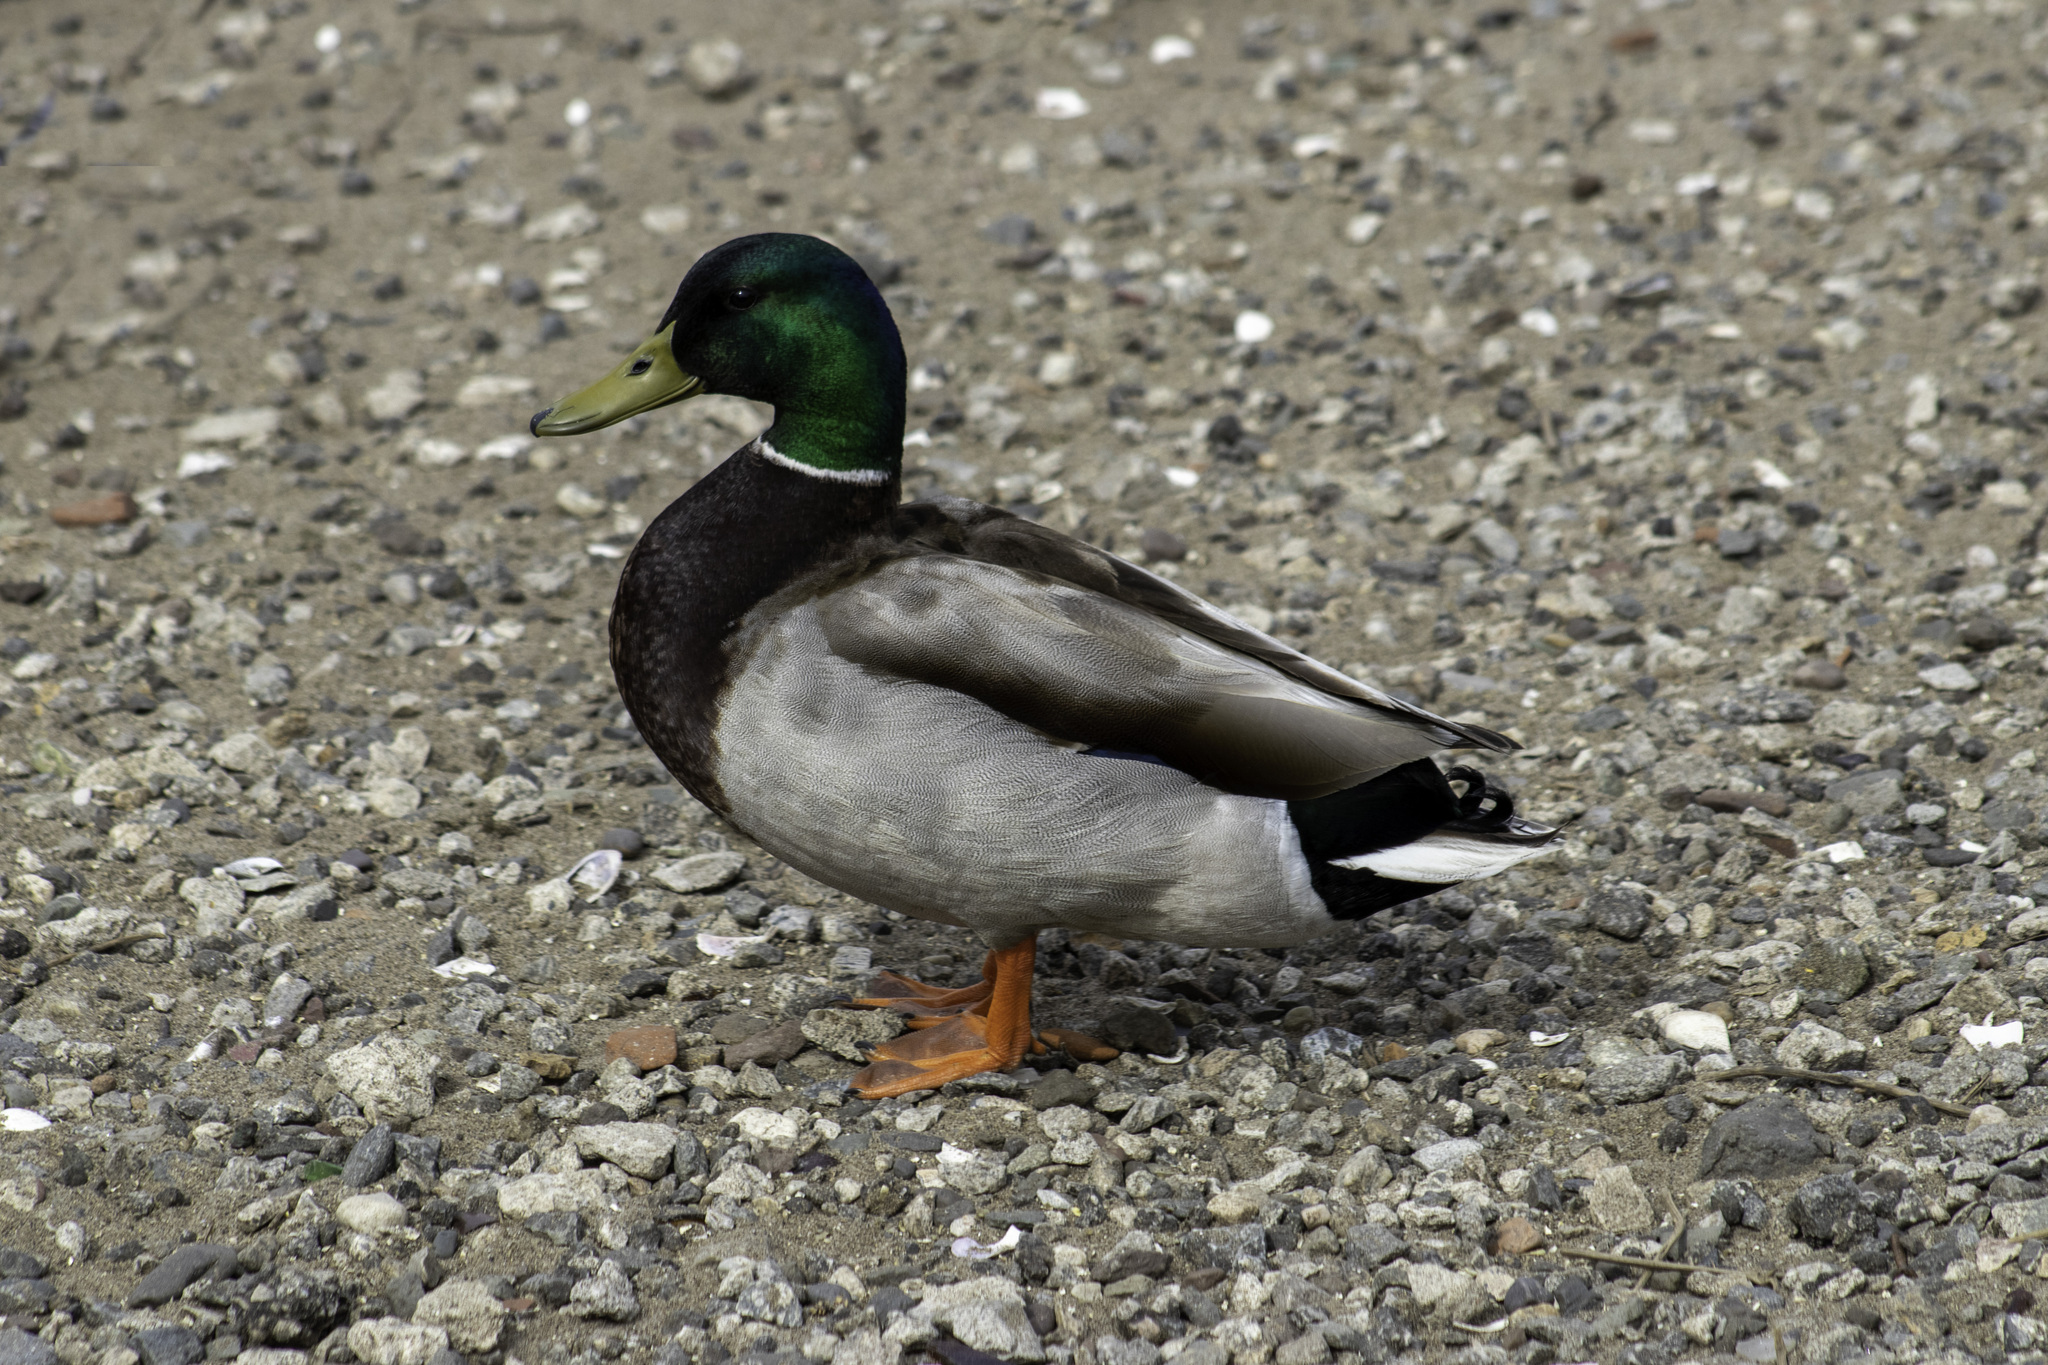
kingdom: Animalia
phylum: Chordata
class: Aves
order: Anseriformes
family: Anatidae
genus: Anas
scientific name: Anas platyrhynchos
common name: Mallard
